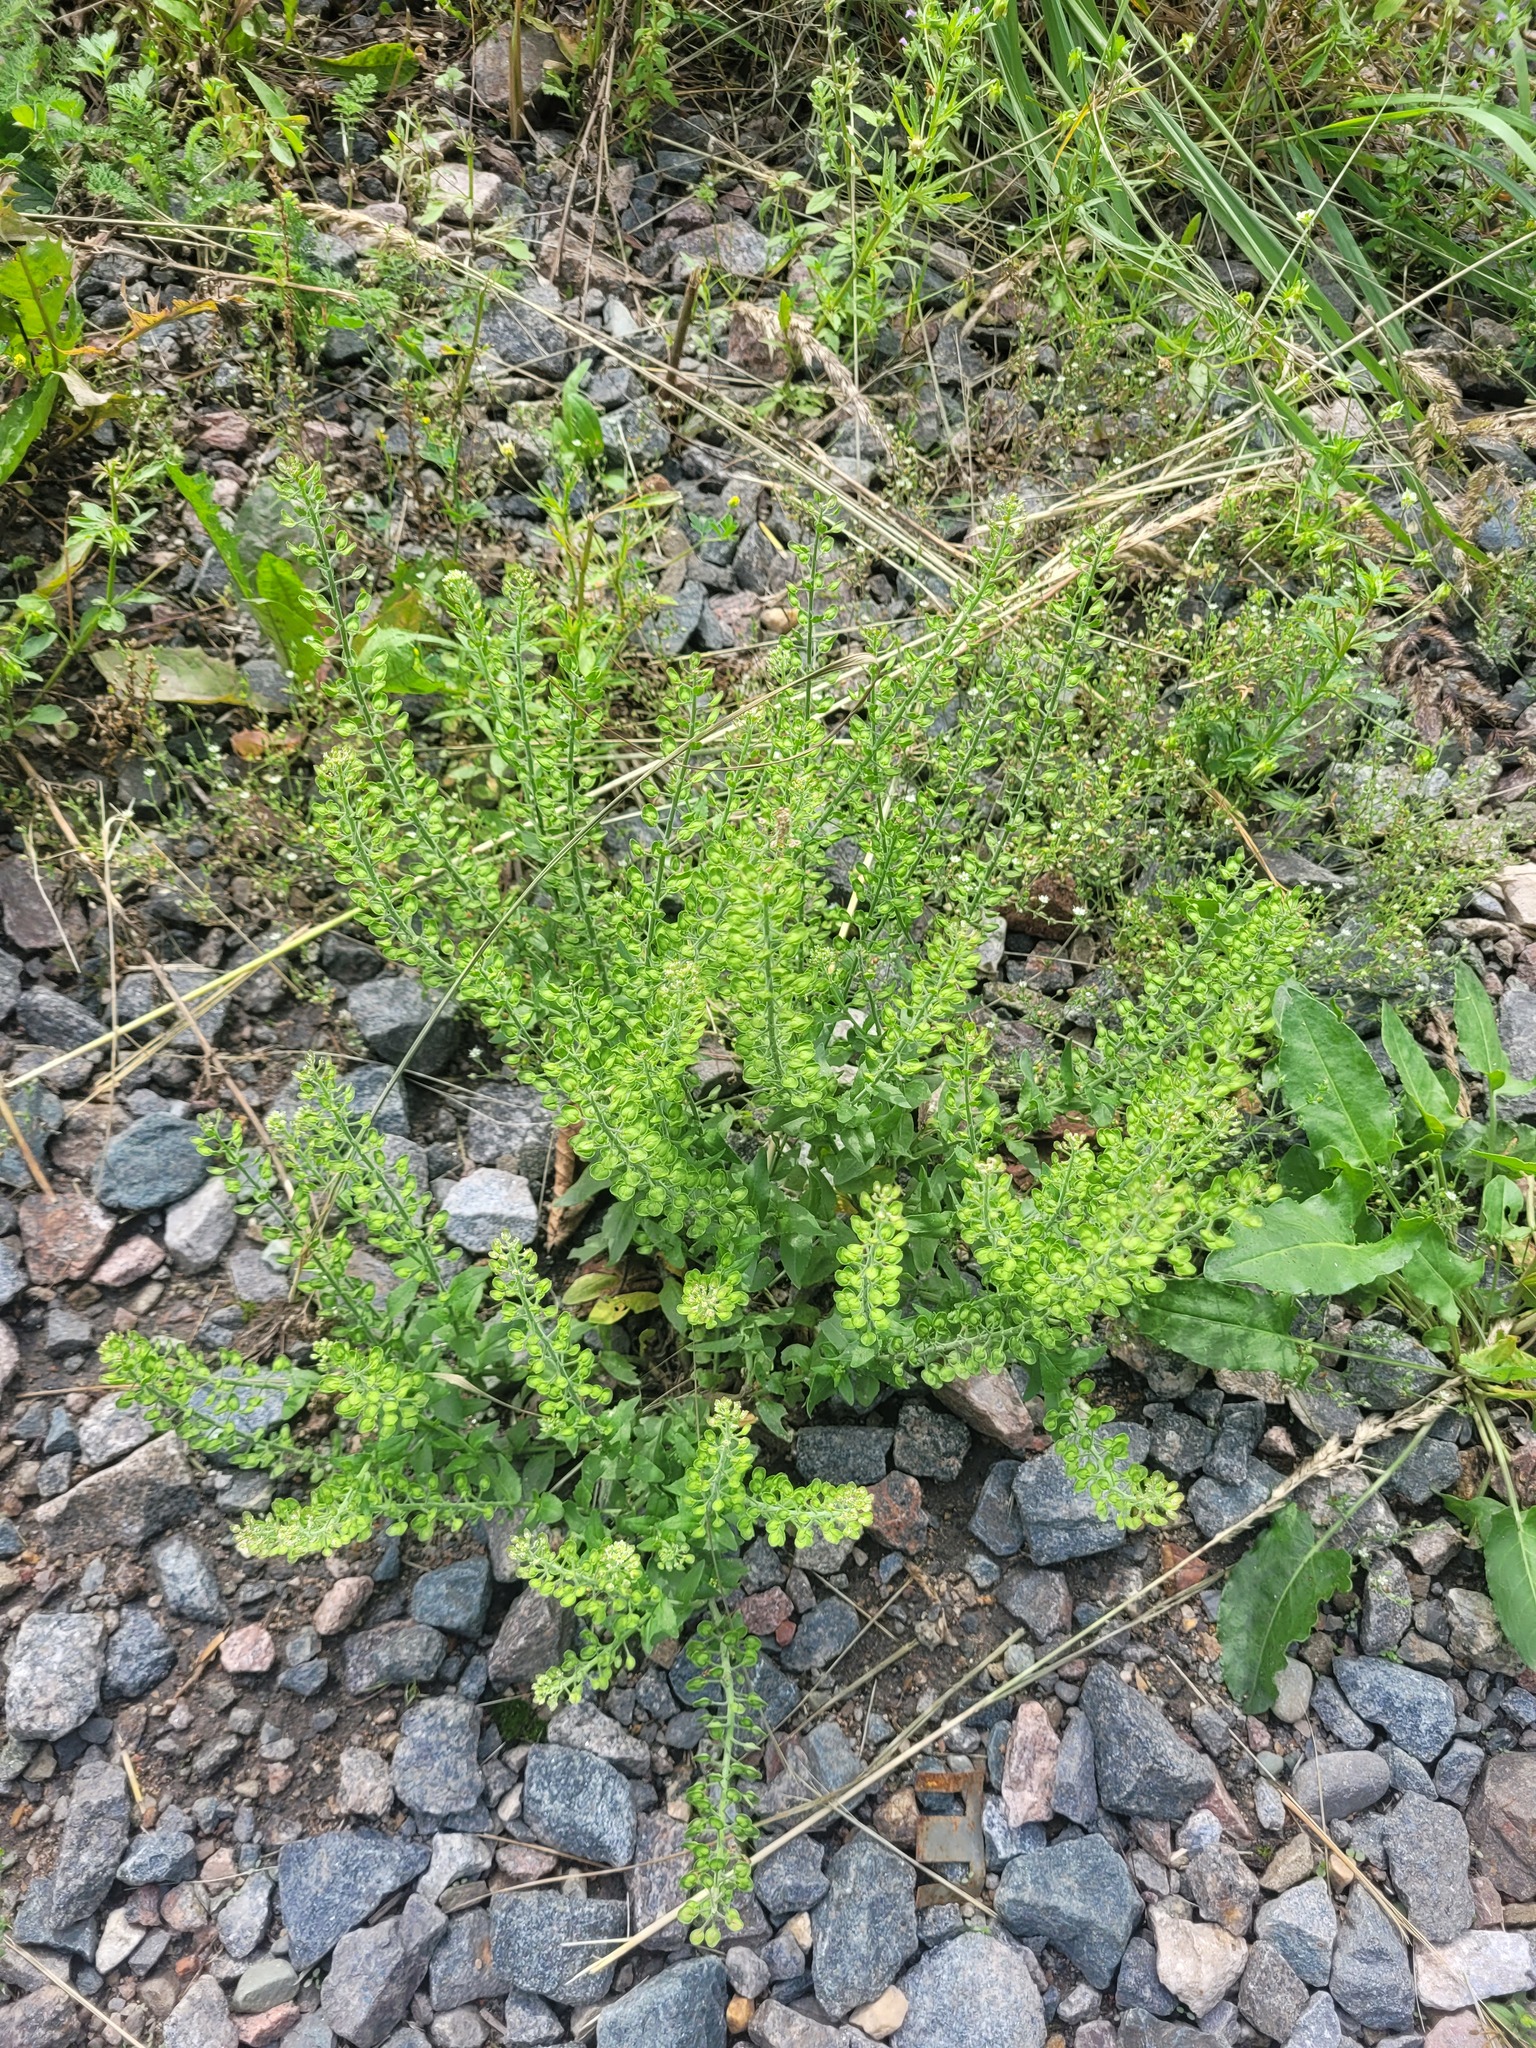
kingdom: Plantae
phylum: Tracheophyta
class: Magnoliopsida
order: Brassicales
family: Brassicaceae
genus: Lepidium
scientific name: Lepidium campestre
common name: Field pepperwort
